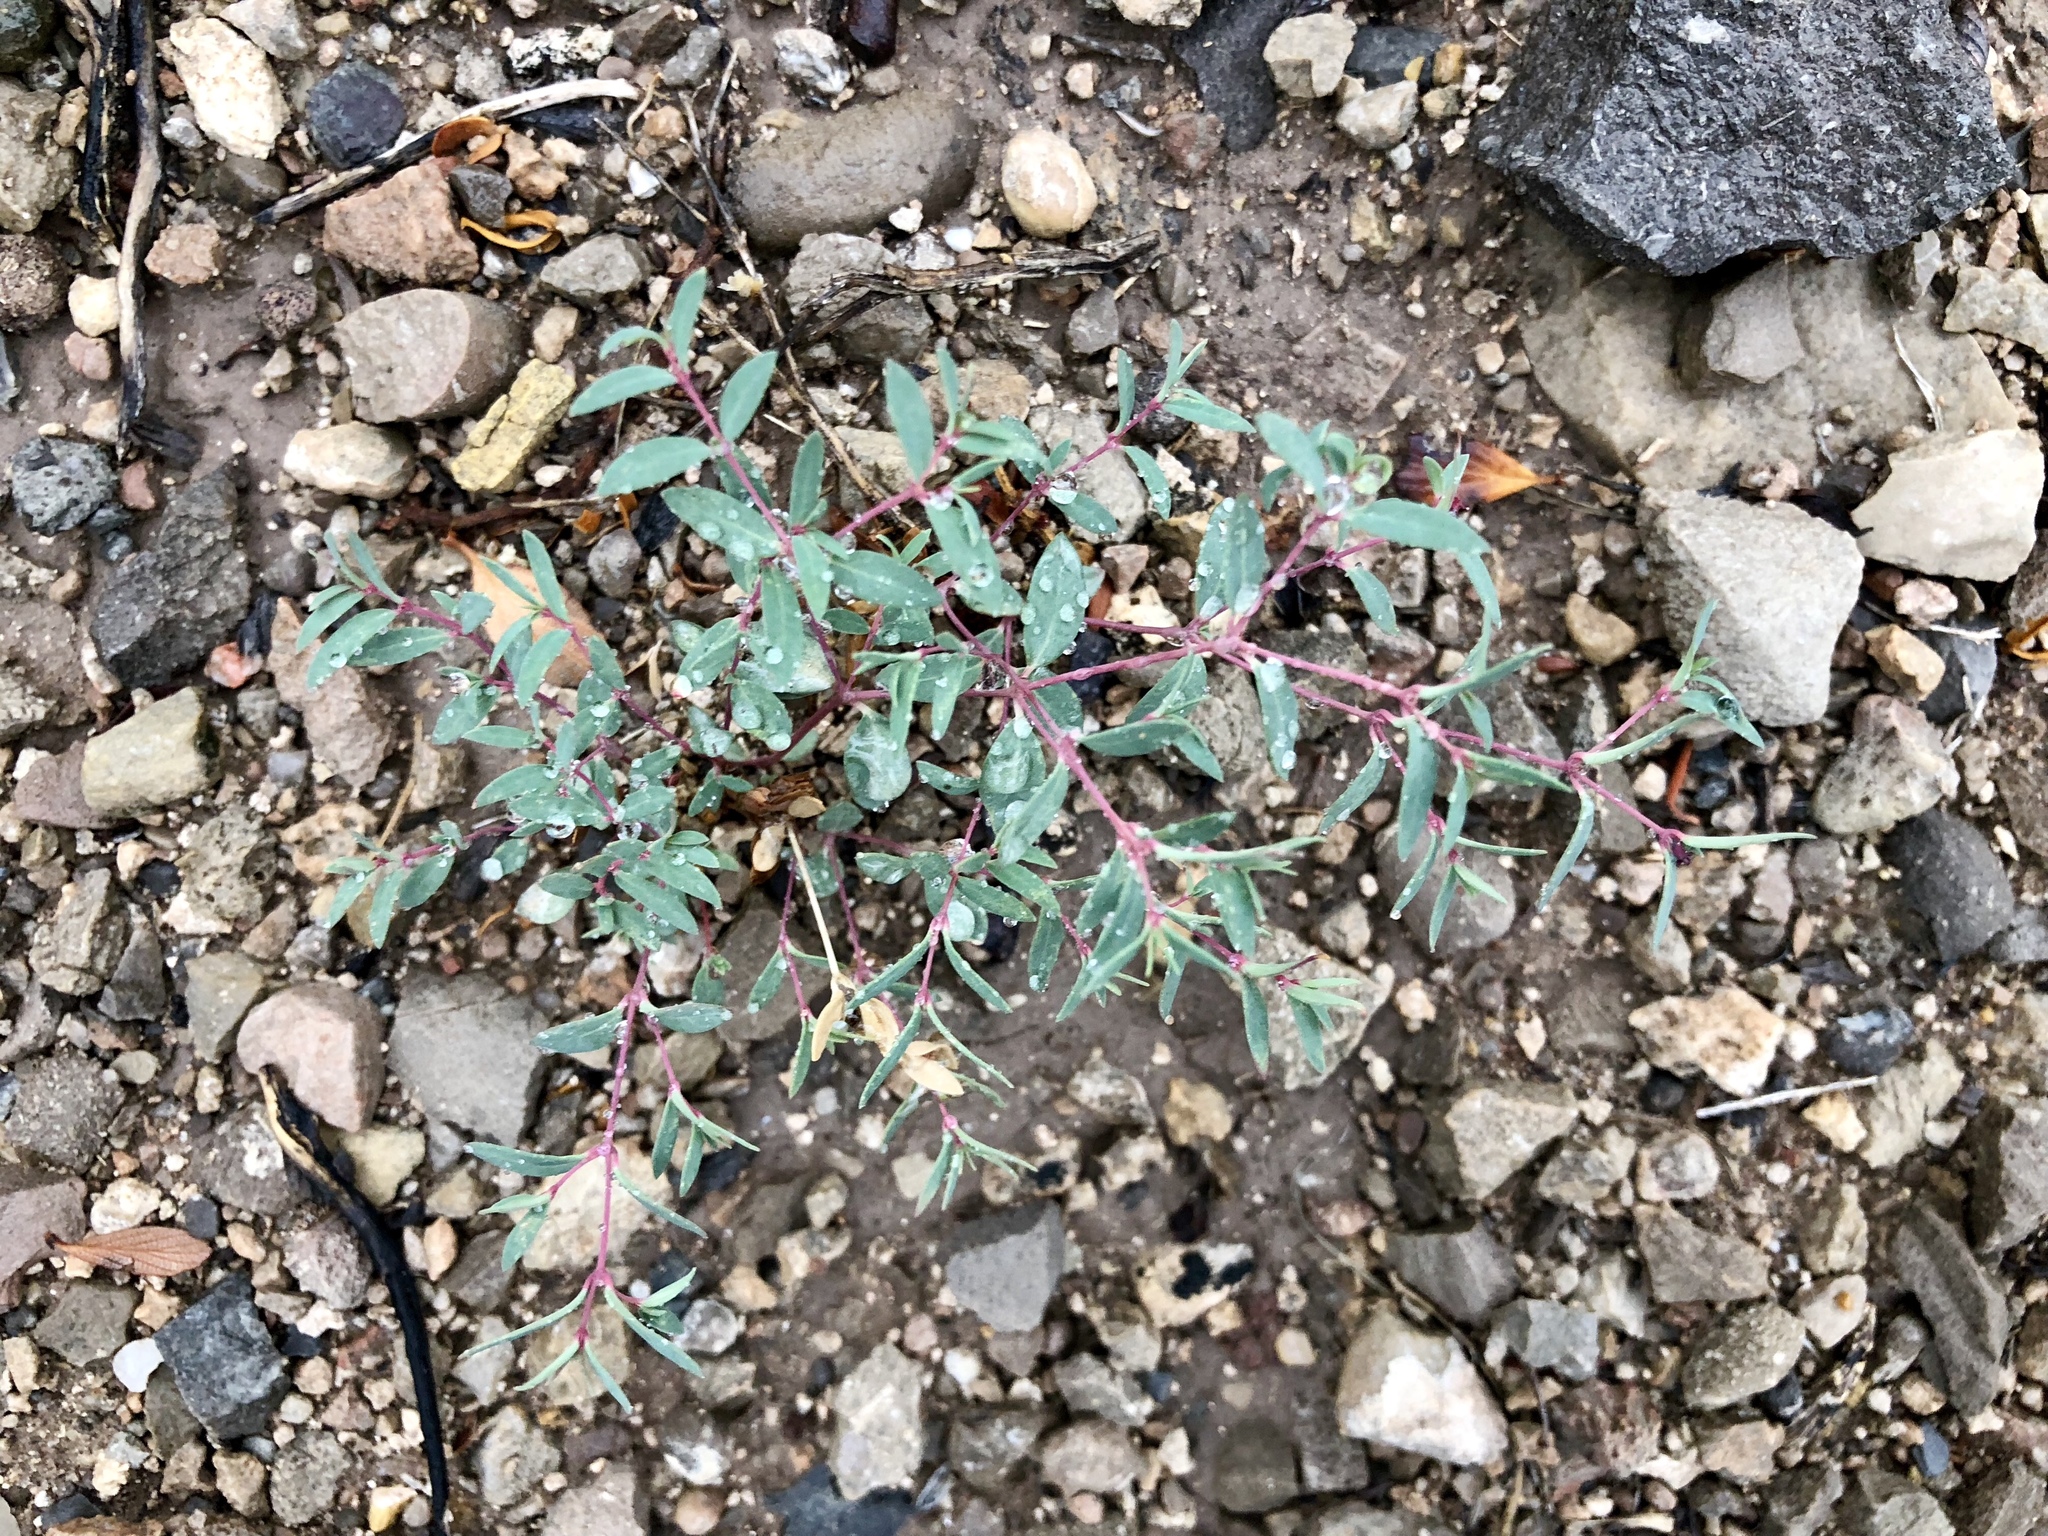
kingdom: Plantae
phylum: Tracheophyta
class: Magnoliopsida
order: Malpighiales
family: Euphorbiaceae
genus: Euphorbia
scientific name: Euphorbia chaetocalyx
